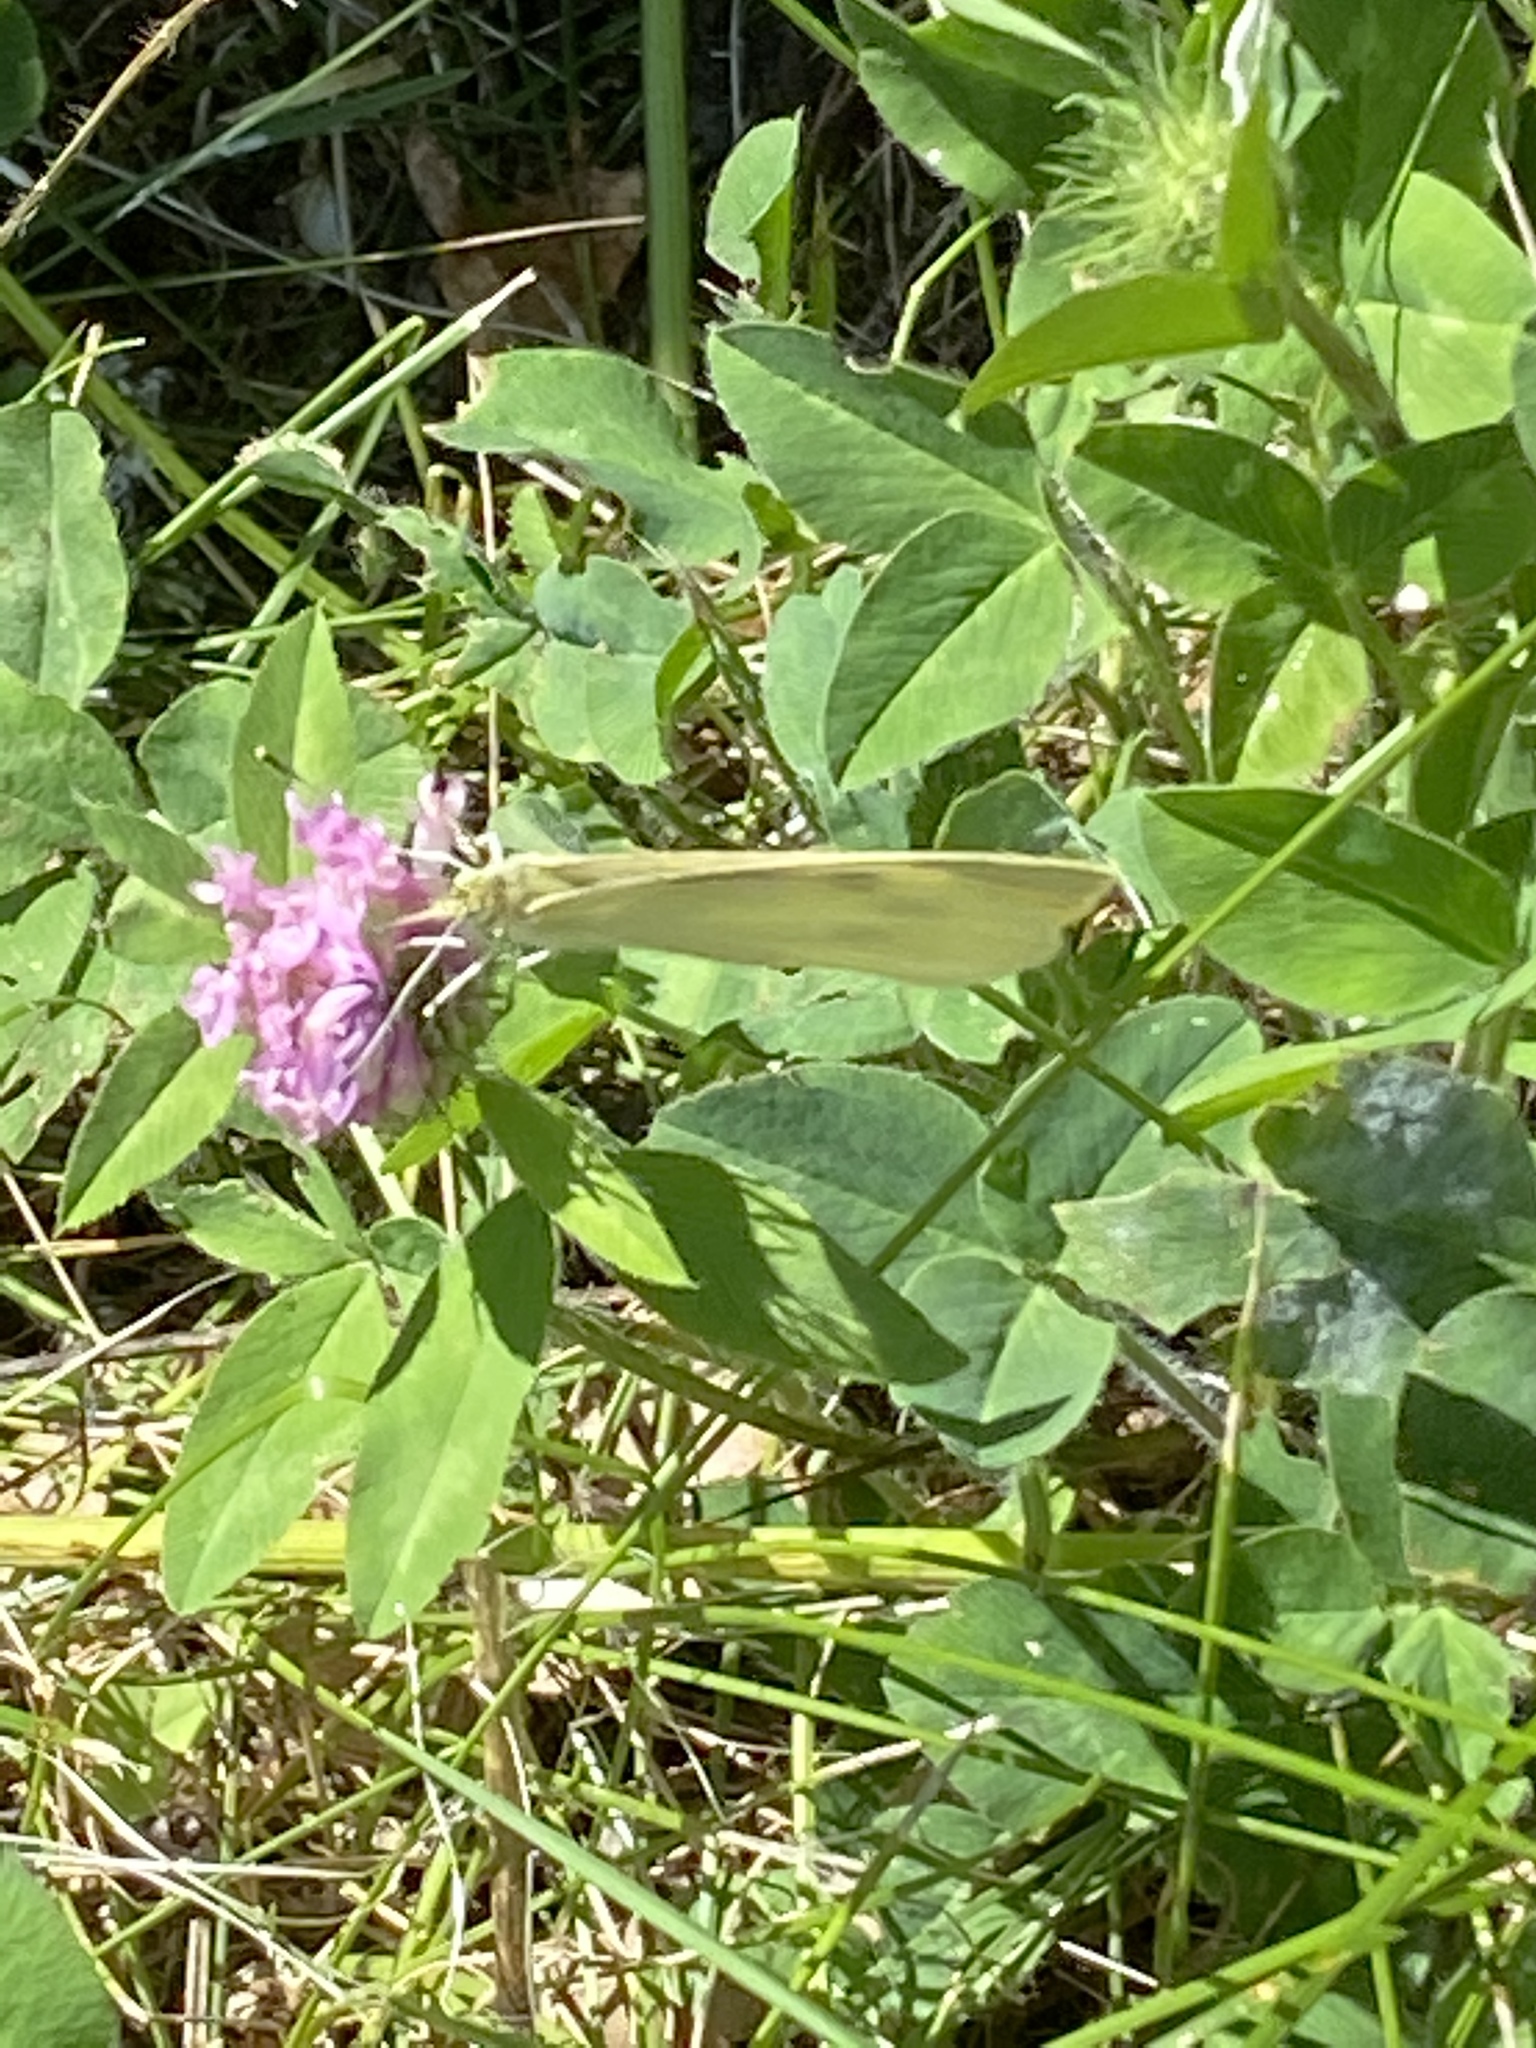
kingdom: Animalia
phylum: Arthropoda
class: Insecta
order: Lepidoptera
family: Pieridae
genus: Pieris
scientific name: Pieris rapae
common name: Small white
